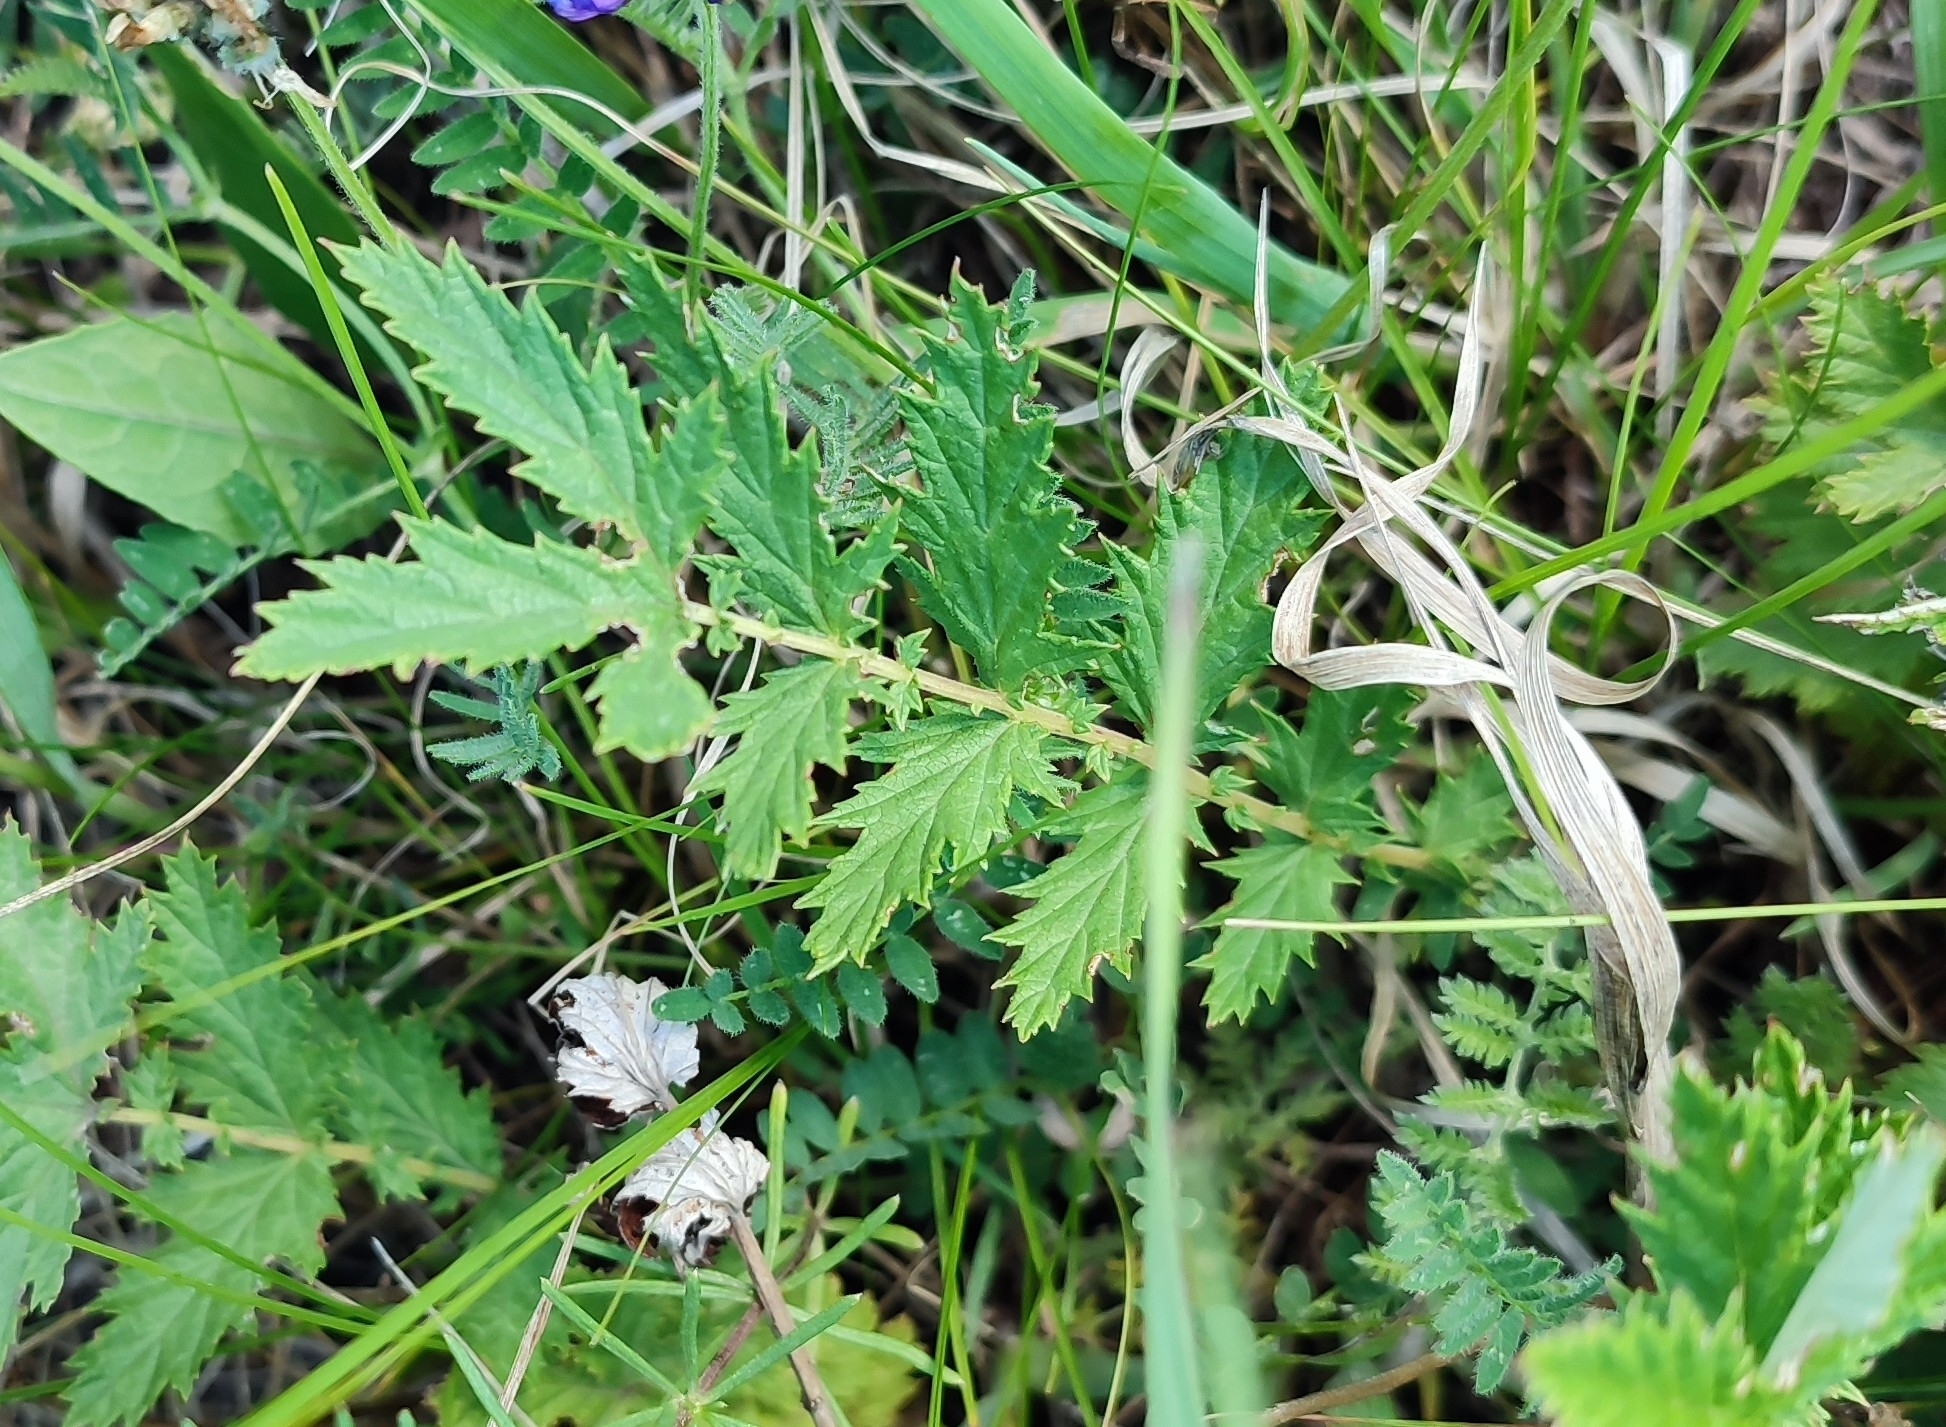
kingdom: Plantae
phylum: Tracheophyta
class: Magnoliopsida
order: Rosales
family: Rosaceae
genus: Filipendula
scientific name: Filipendula ulmaria
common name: Meadowsweet
